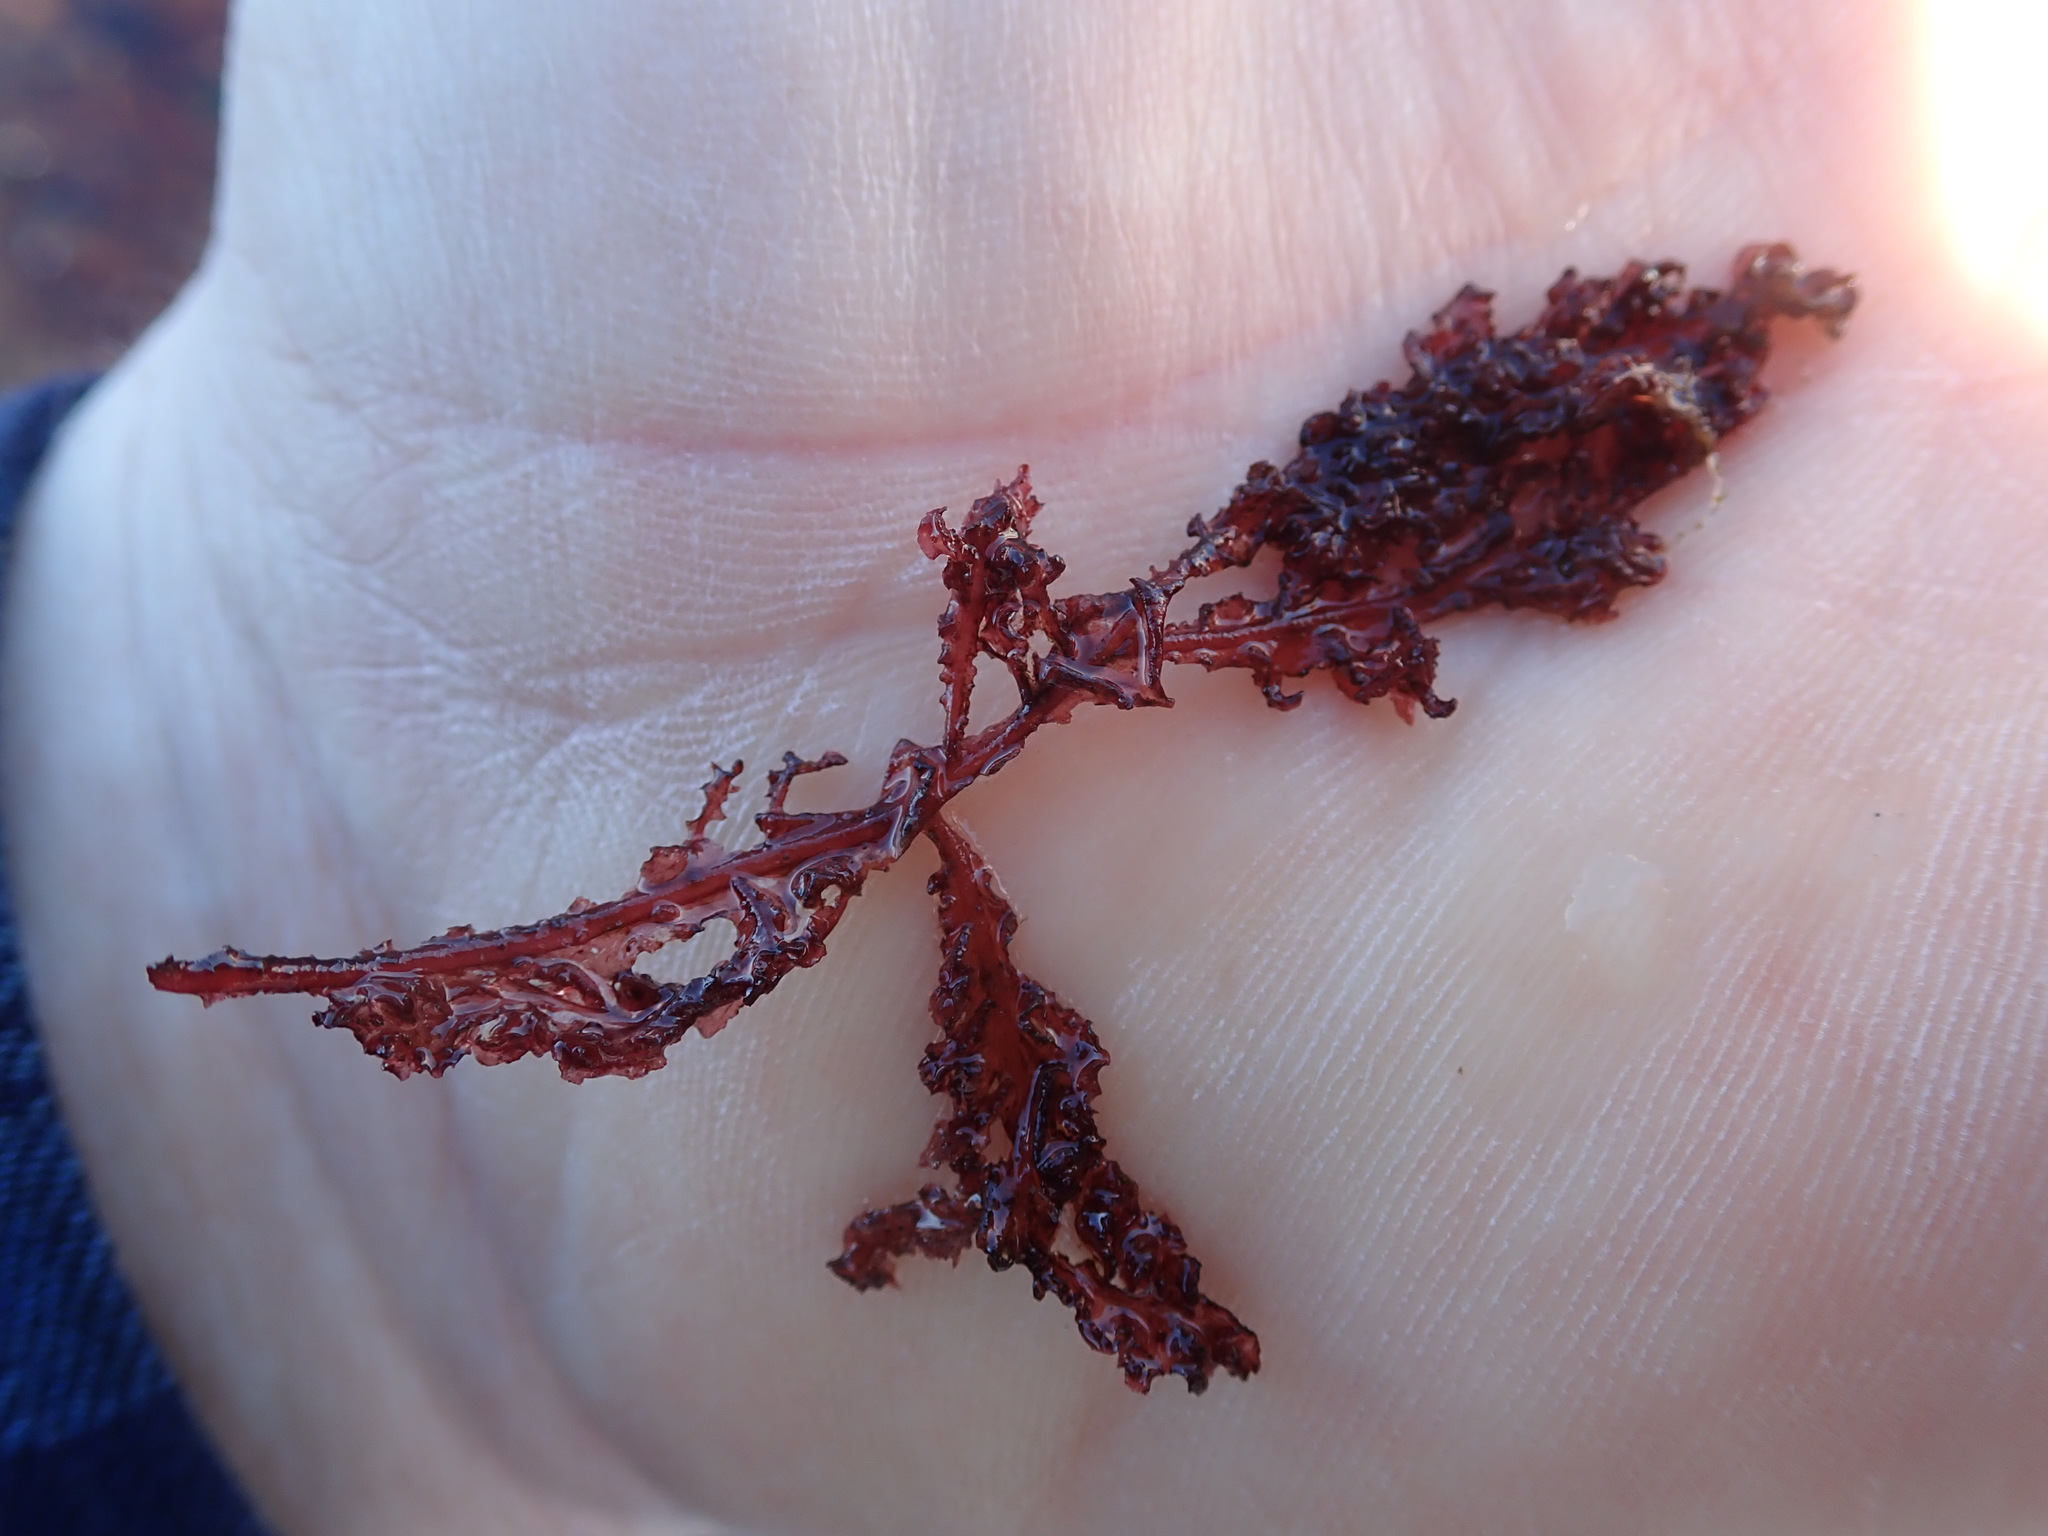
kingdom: Plantae
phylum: Rhodophyta
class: Florideophyceae
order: Ceramiales
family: Delesseriaceae
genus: Cumathamnion
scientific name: Cumathamnion decipiens
